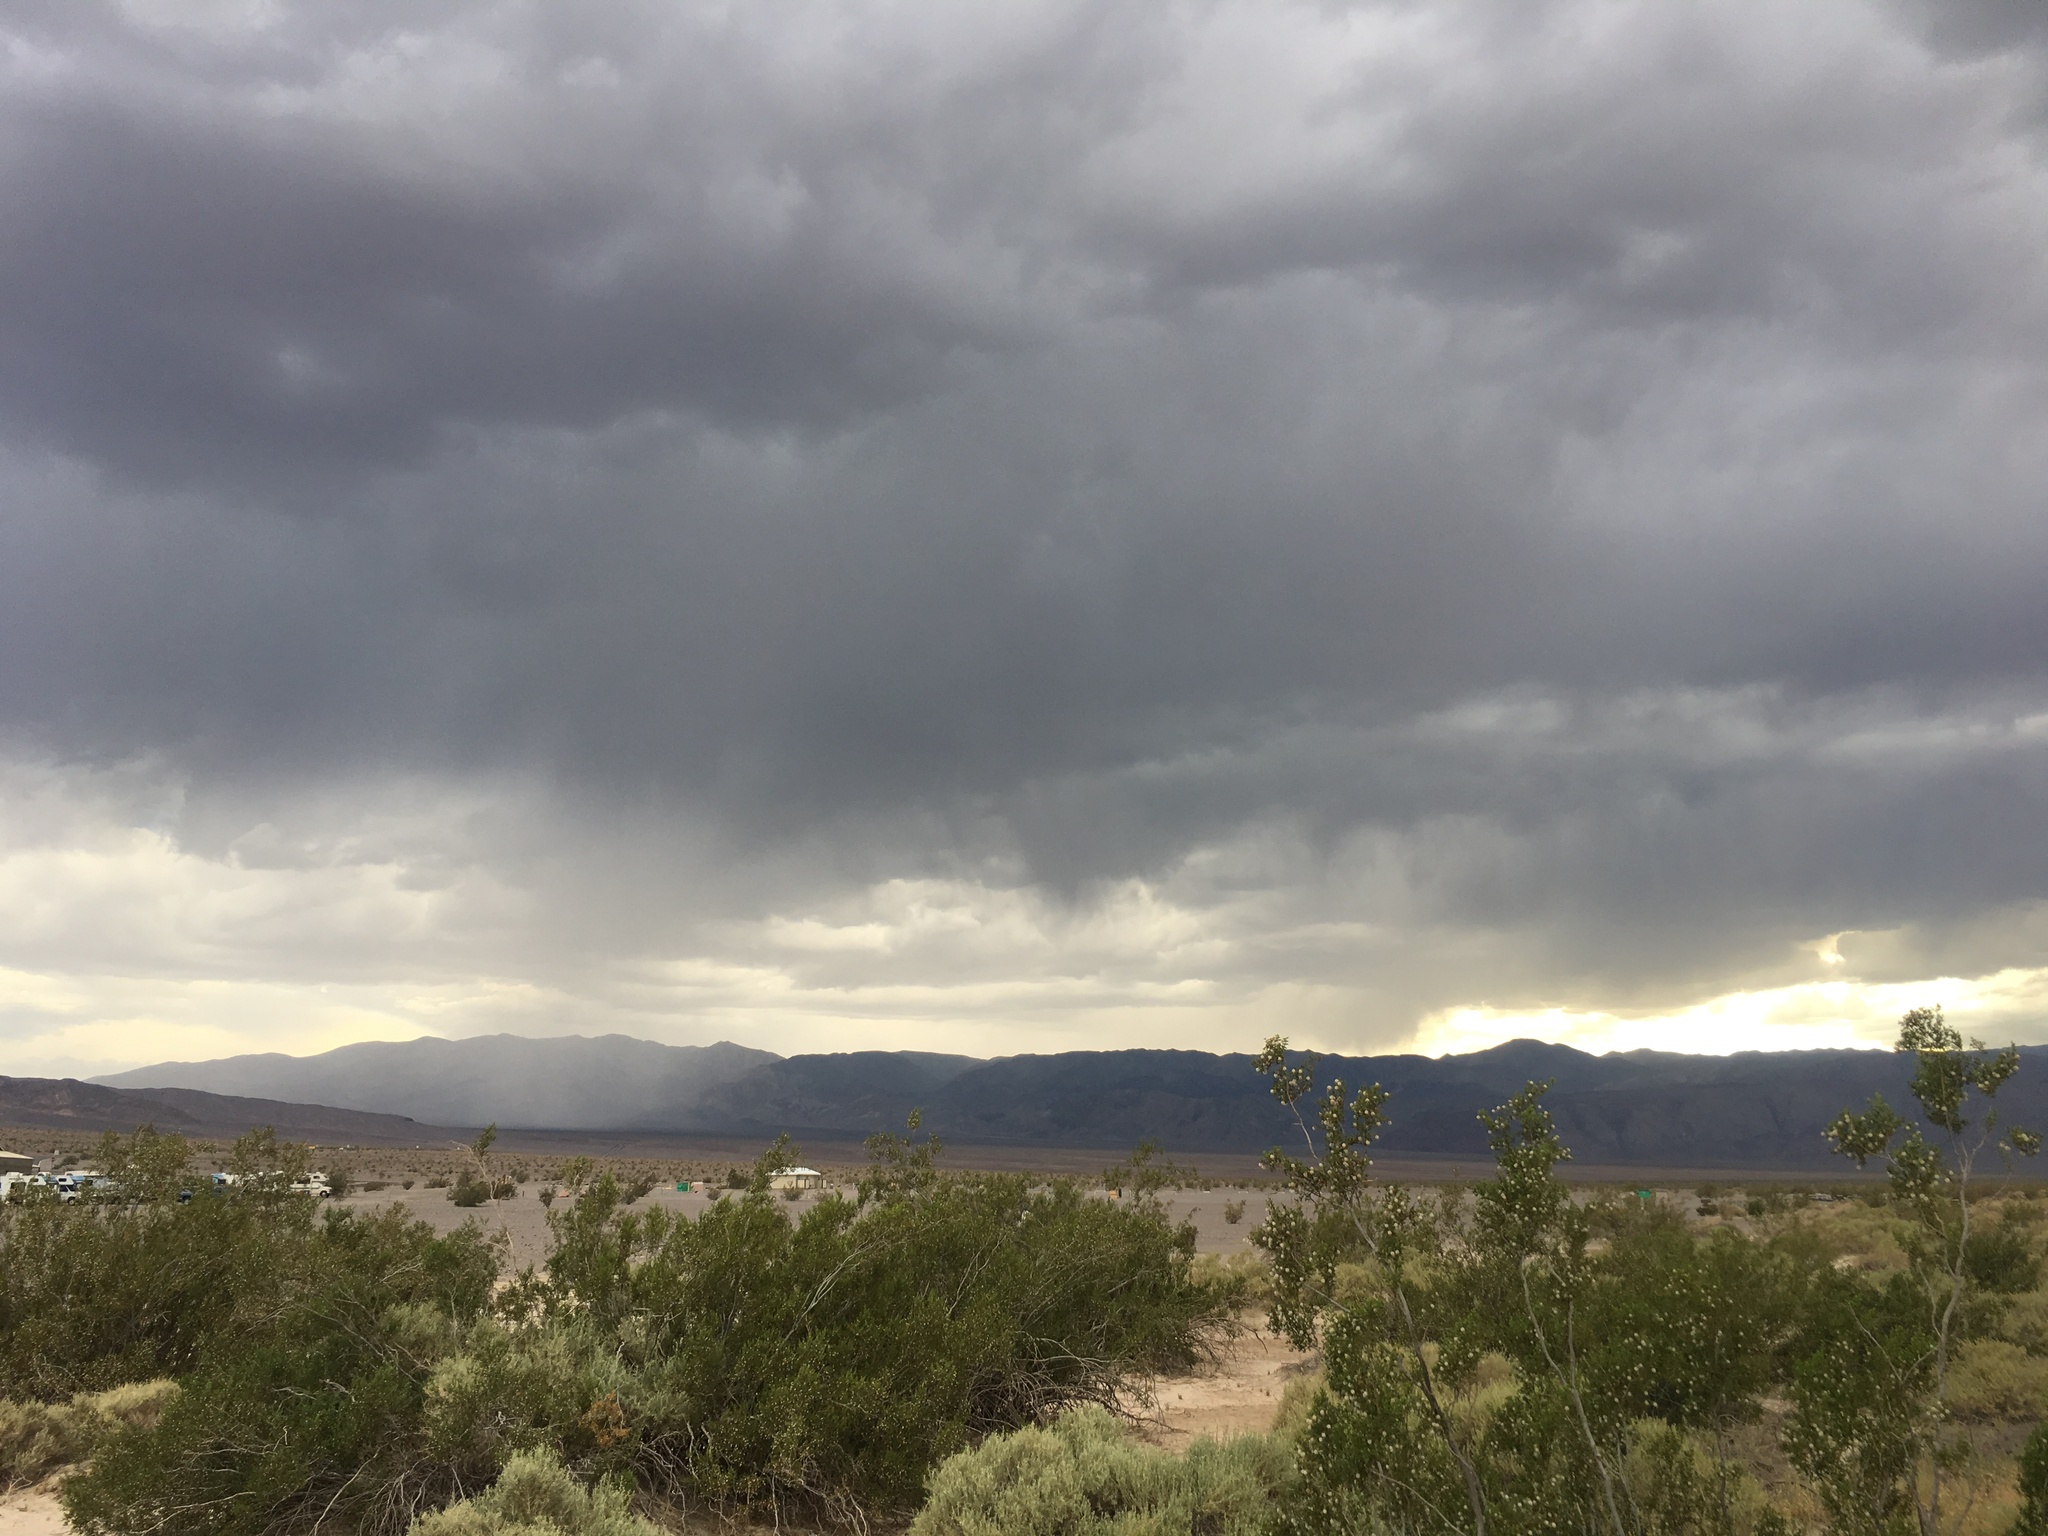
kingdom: Plantae
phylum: Tracheophyta
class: Magnoliopsida
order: Zygophyllales
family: Zygophyllaceae
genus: Larrea
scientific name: Larrea tridentata
